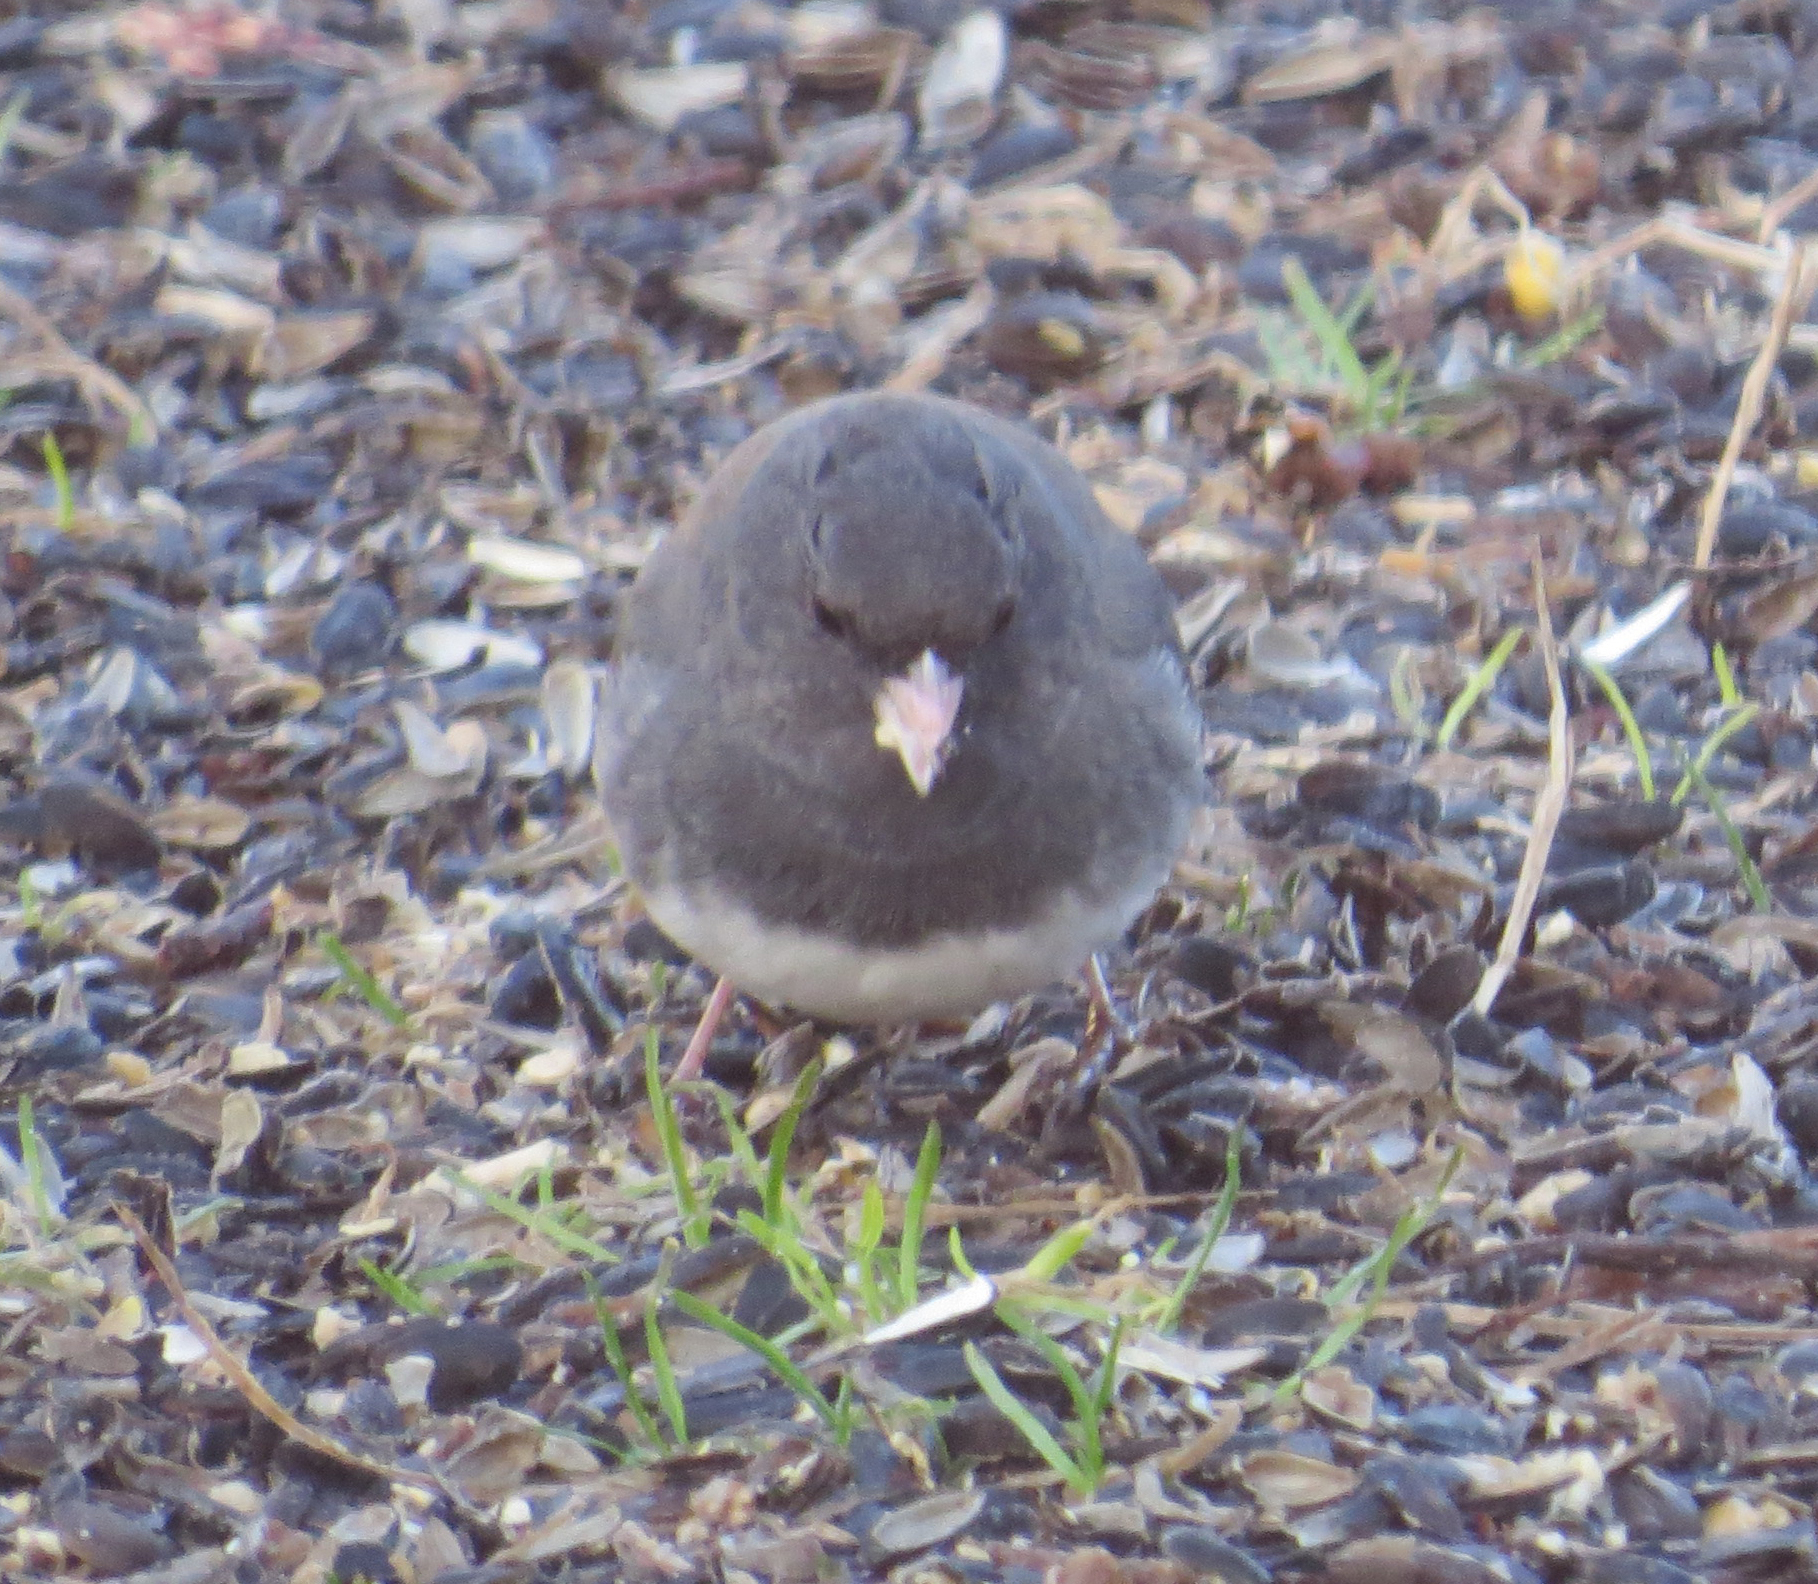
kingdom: Animalia
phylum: Chordata
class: Aves
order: Passeriformes
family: Passerellidae
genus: Junco
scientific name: Junco hyemalis
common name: Dark-eyed junco
